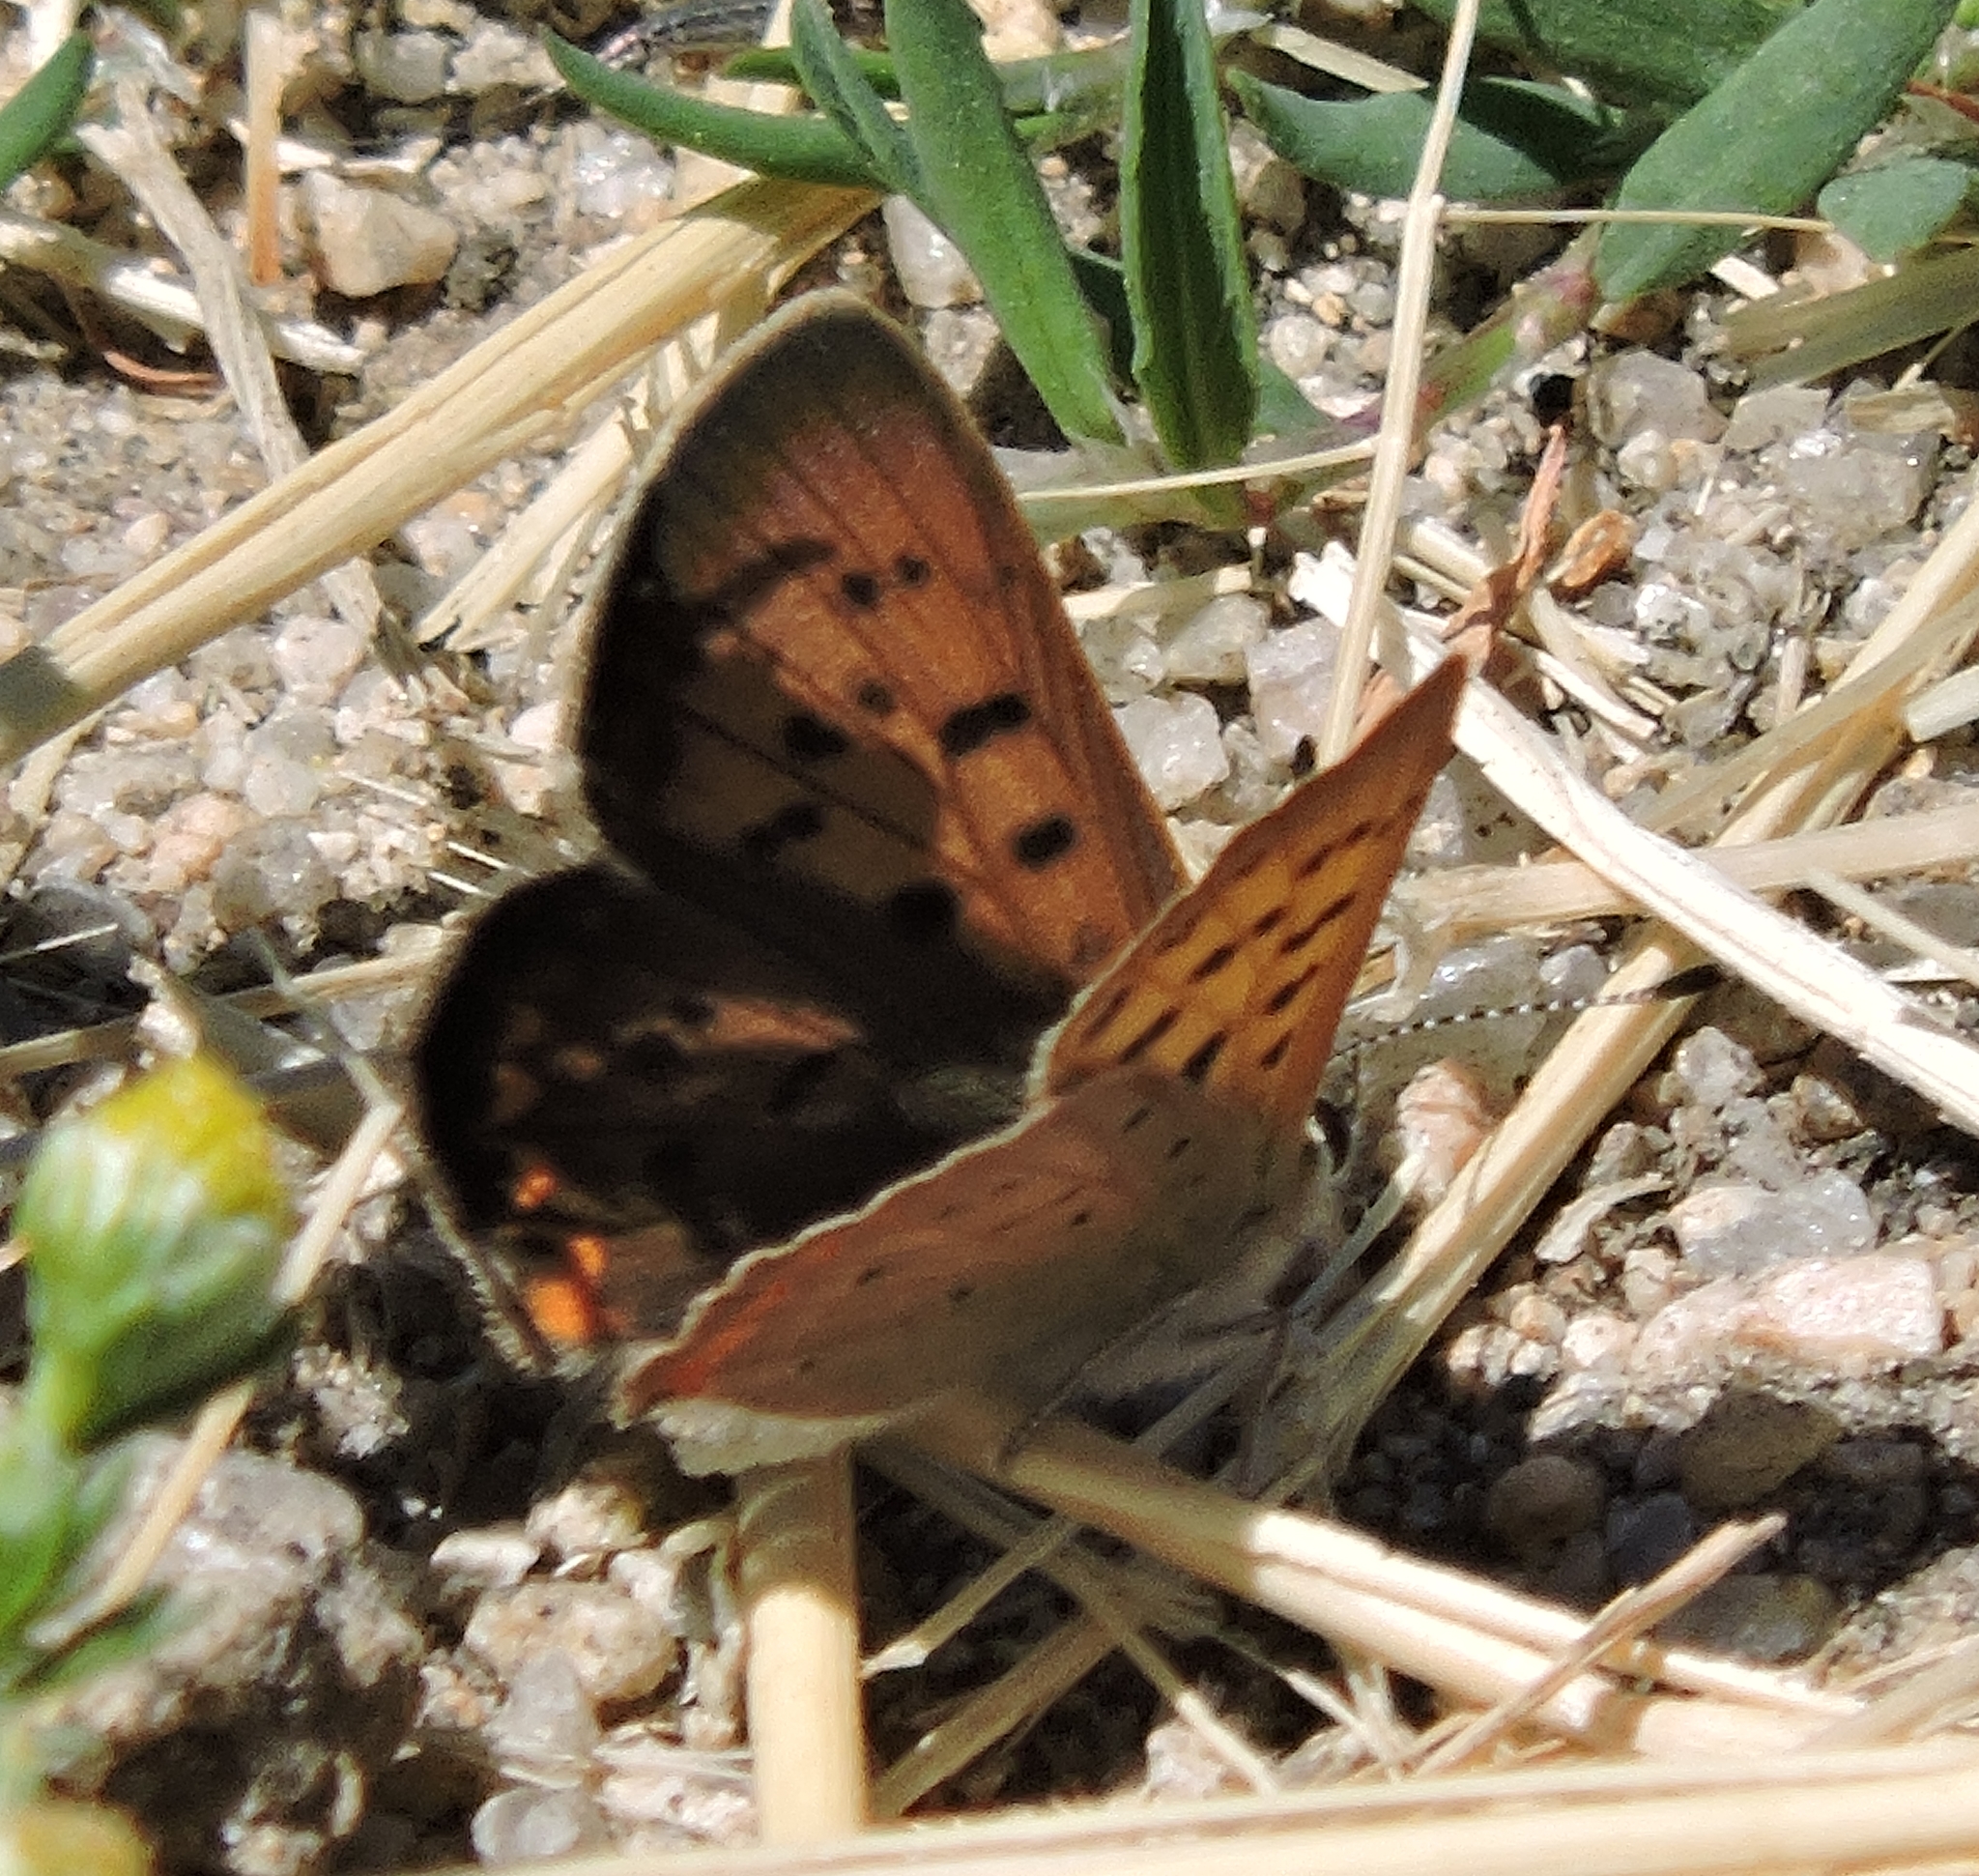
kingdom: Animalia
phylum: Arthropoda
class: Insecta
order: Lepidoptera
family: Lycaenidae
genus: Tharsalea
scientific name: Tharsalea helloides
